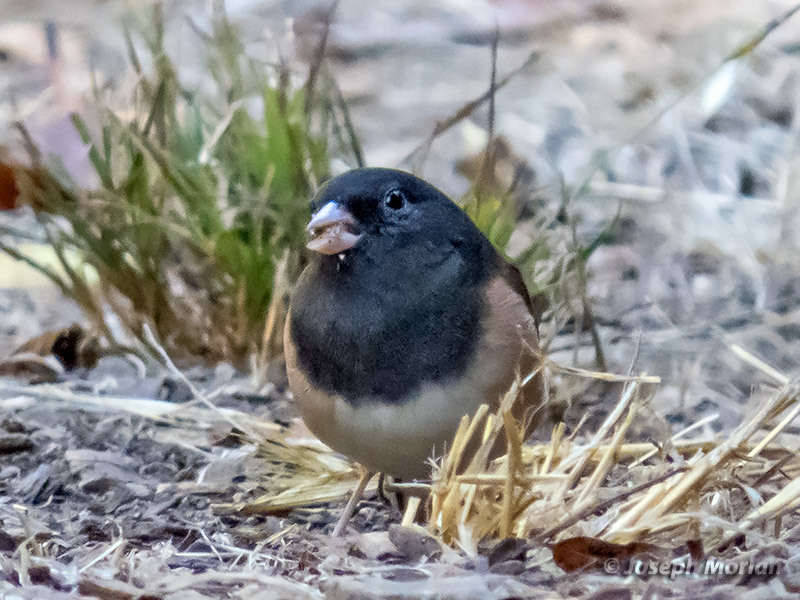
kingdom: Animalia
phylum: Chordata
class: Aves
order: Passeriformes
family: Passerellidae
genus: Junco
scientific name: Junco hyemalis
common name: Dark-eyed junco
